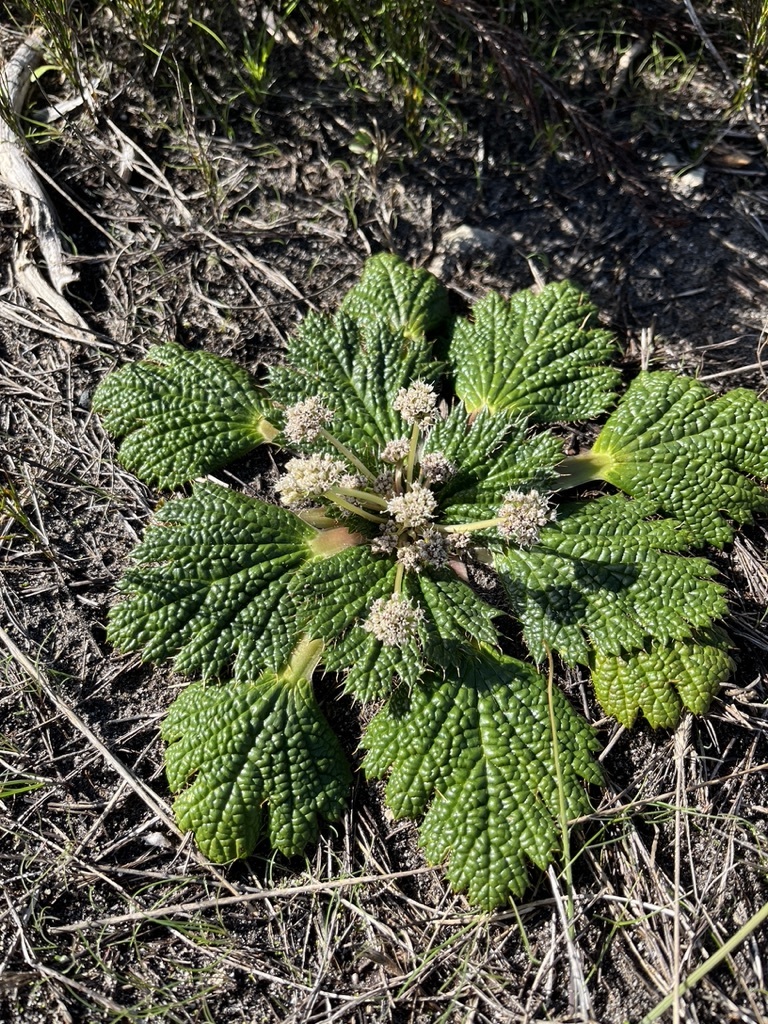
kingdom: Plantae
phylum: Tracheophyta
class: Magnoliopsida
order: Apiales
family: Apiaceae
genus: Arctopus
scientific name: Arctopus echinatus
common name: Platdoring
